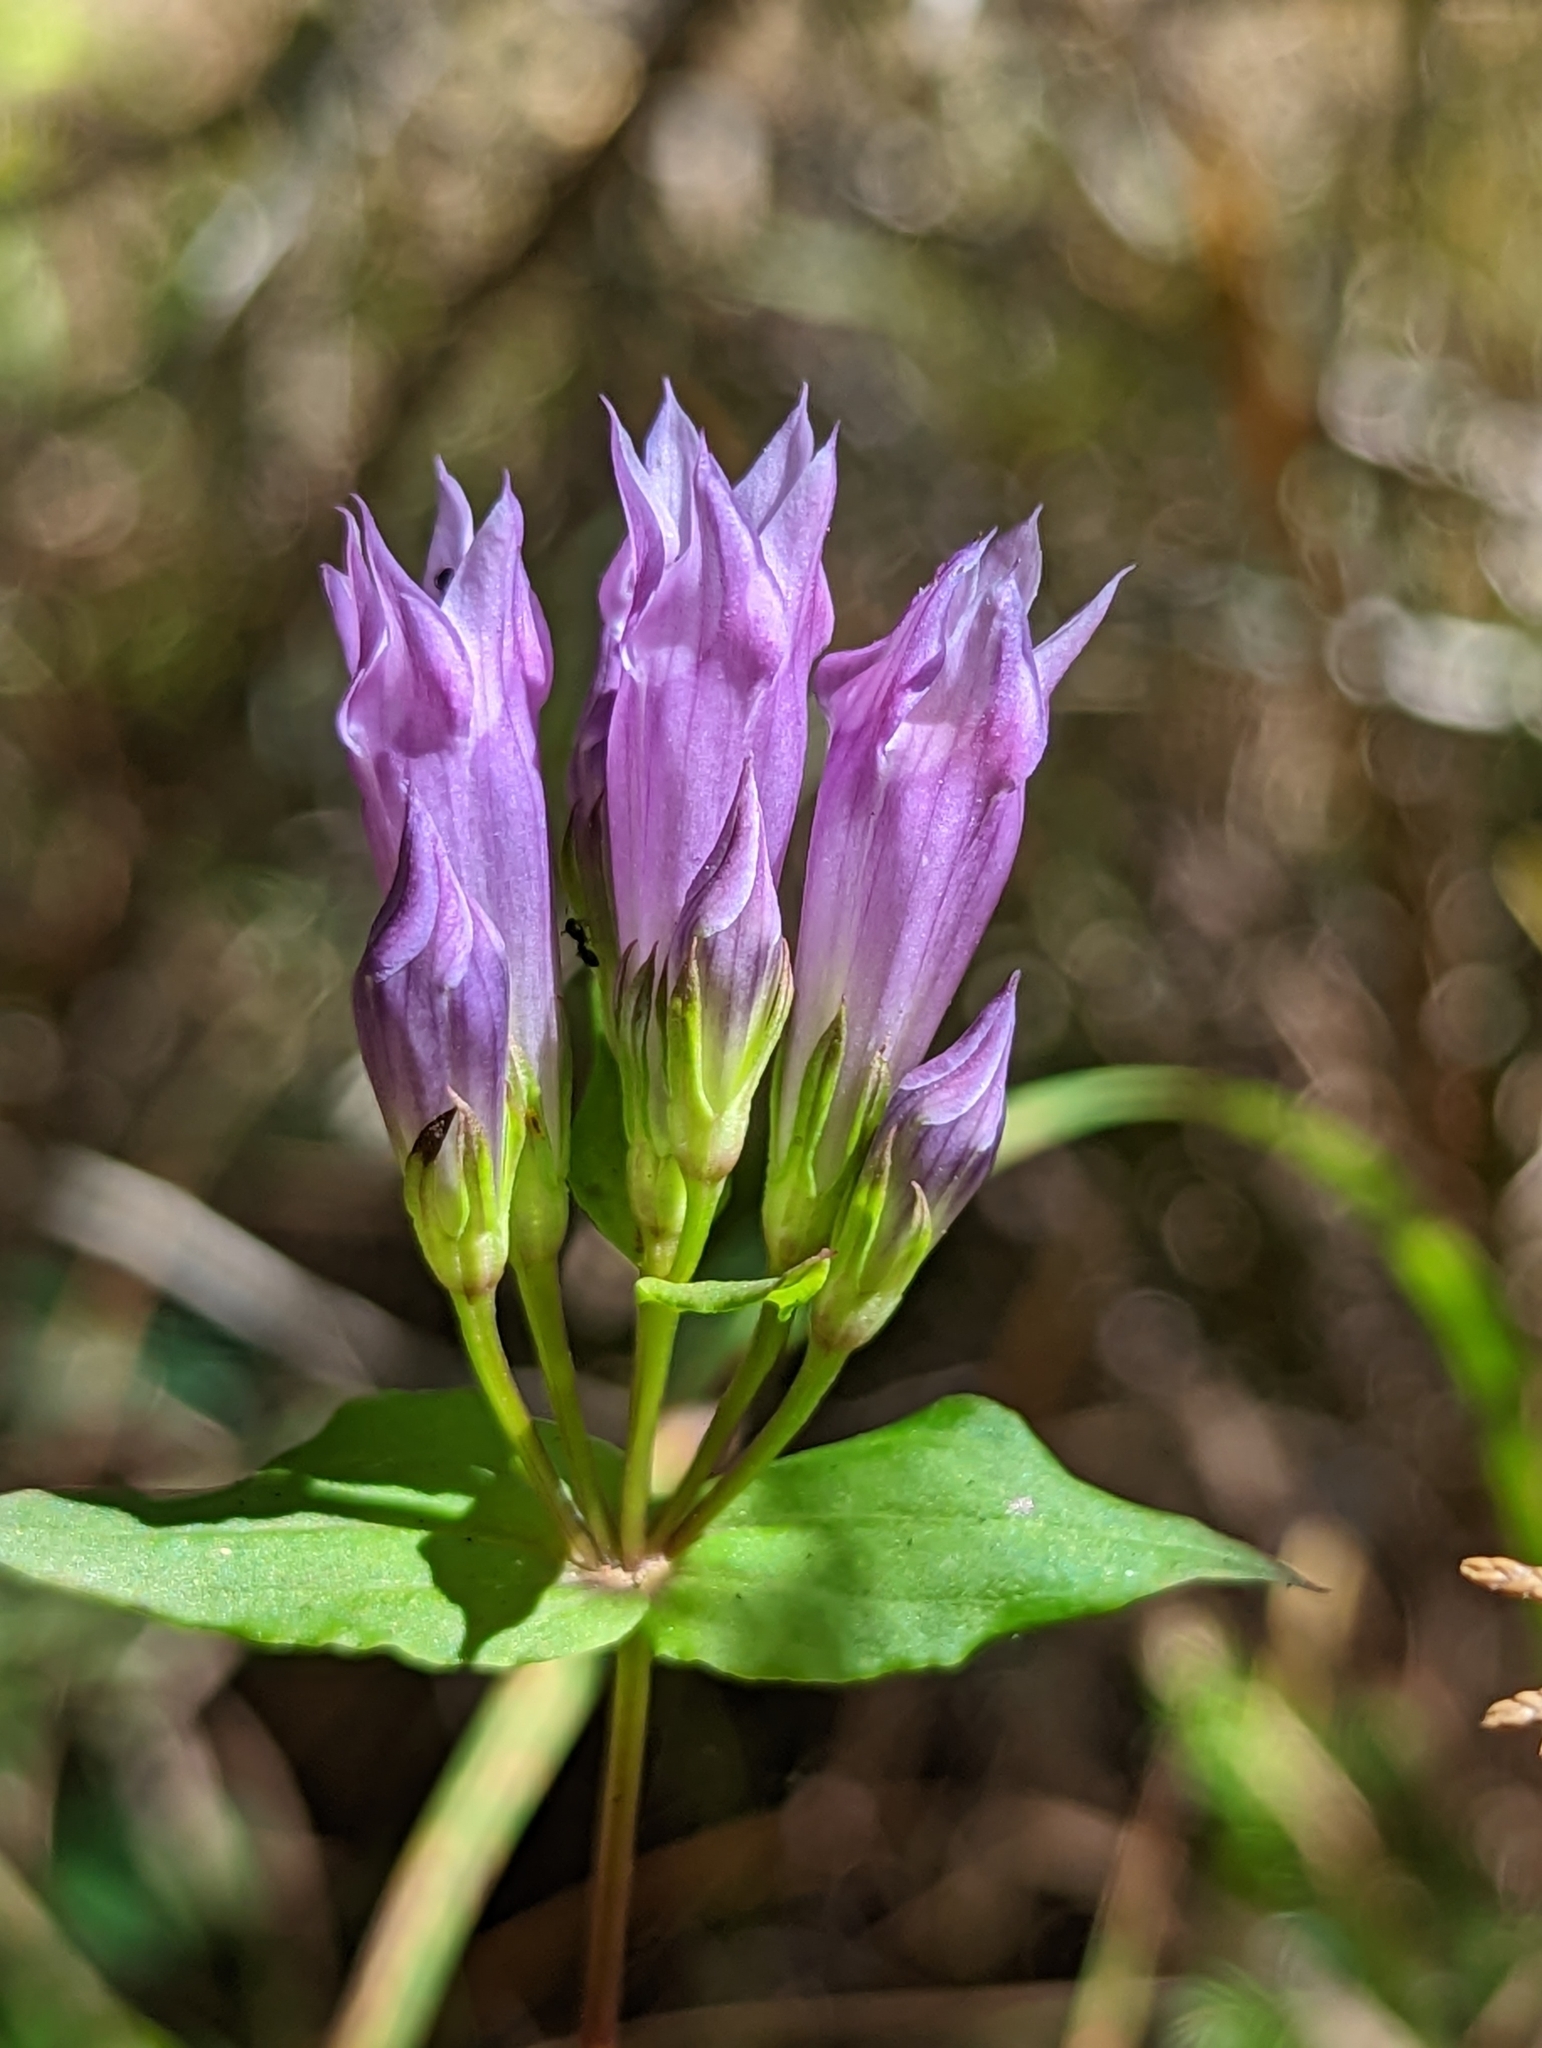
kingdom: Plantae
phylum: Tracheophyta
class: Magnoliopsida
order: Gentianales
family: Gentianaceae
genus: Gentianella
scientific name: Gentianella quinquefolia
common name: Agueweed
